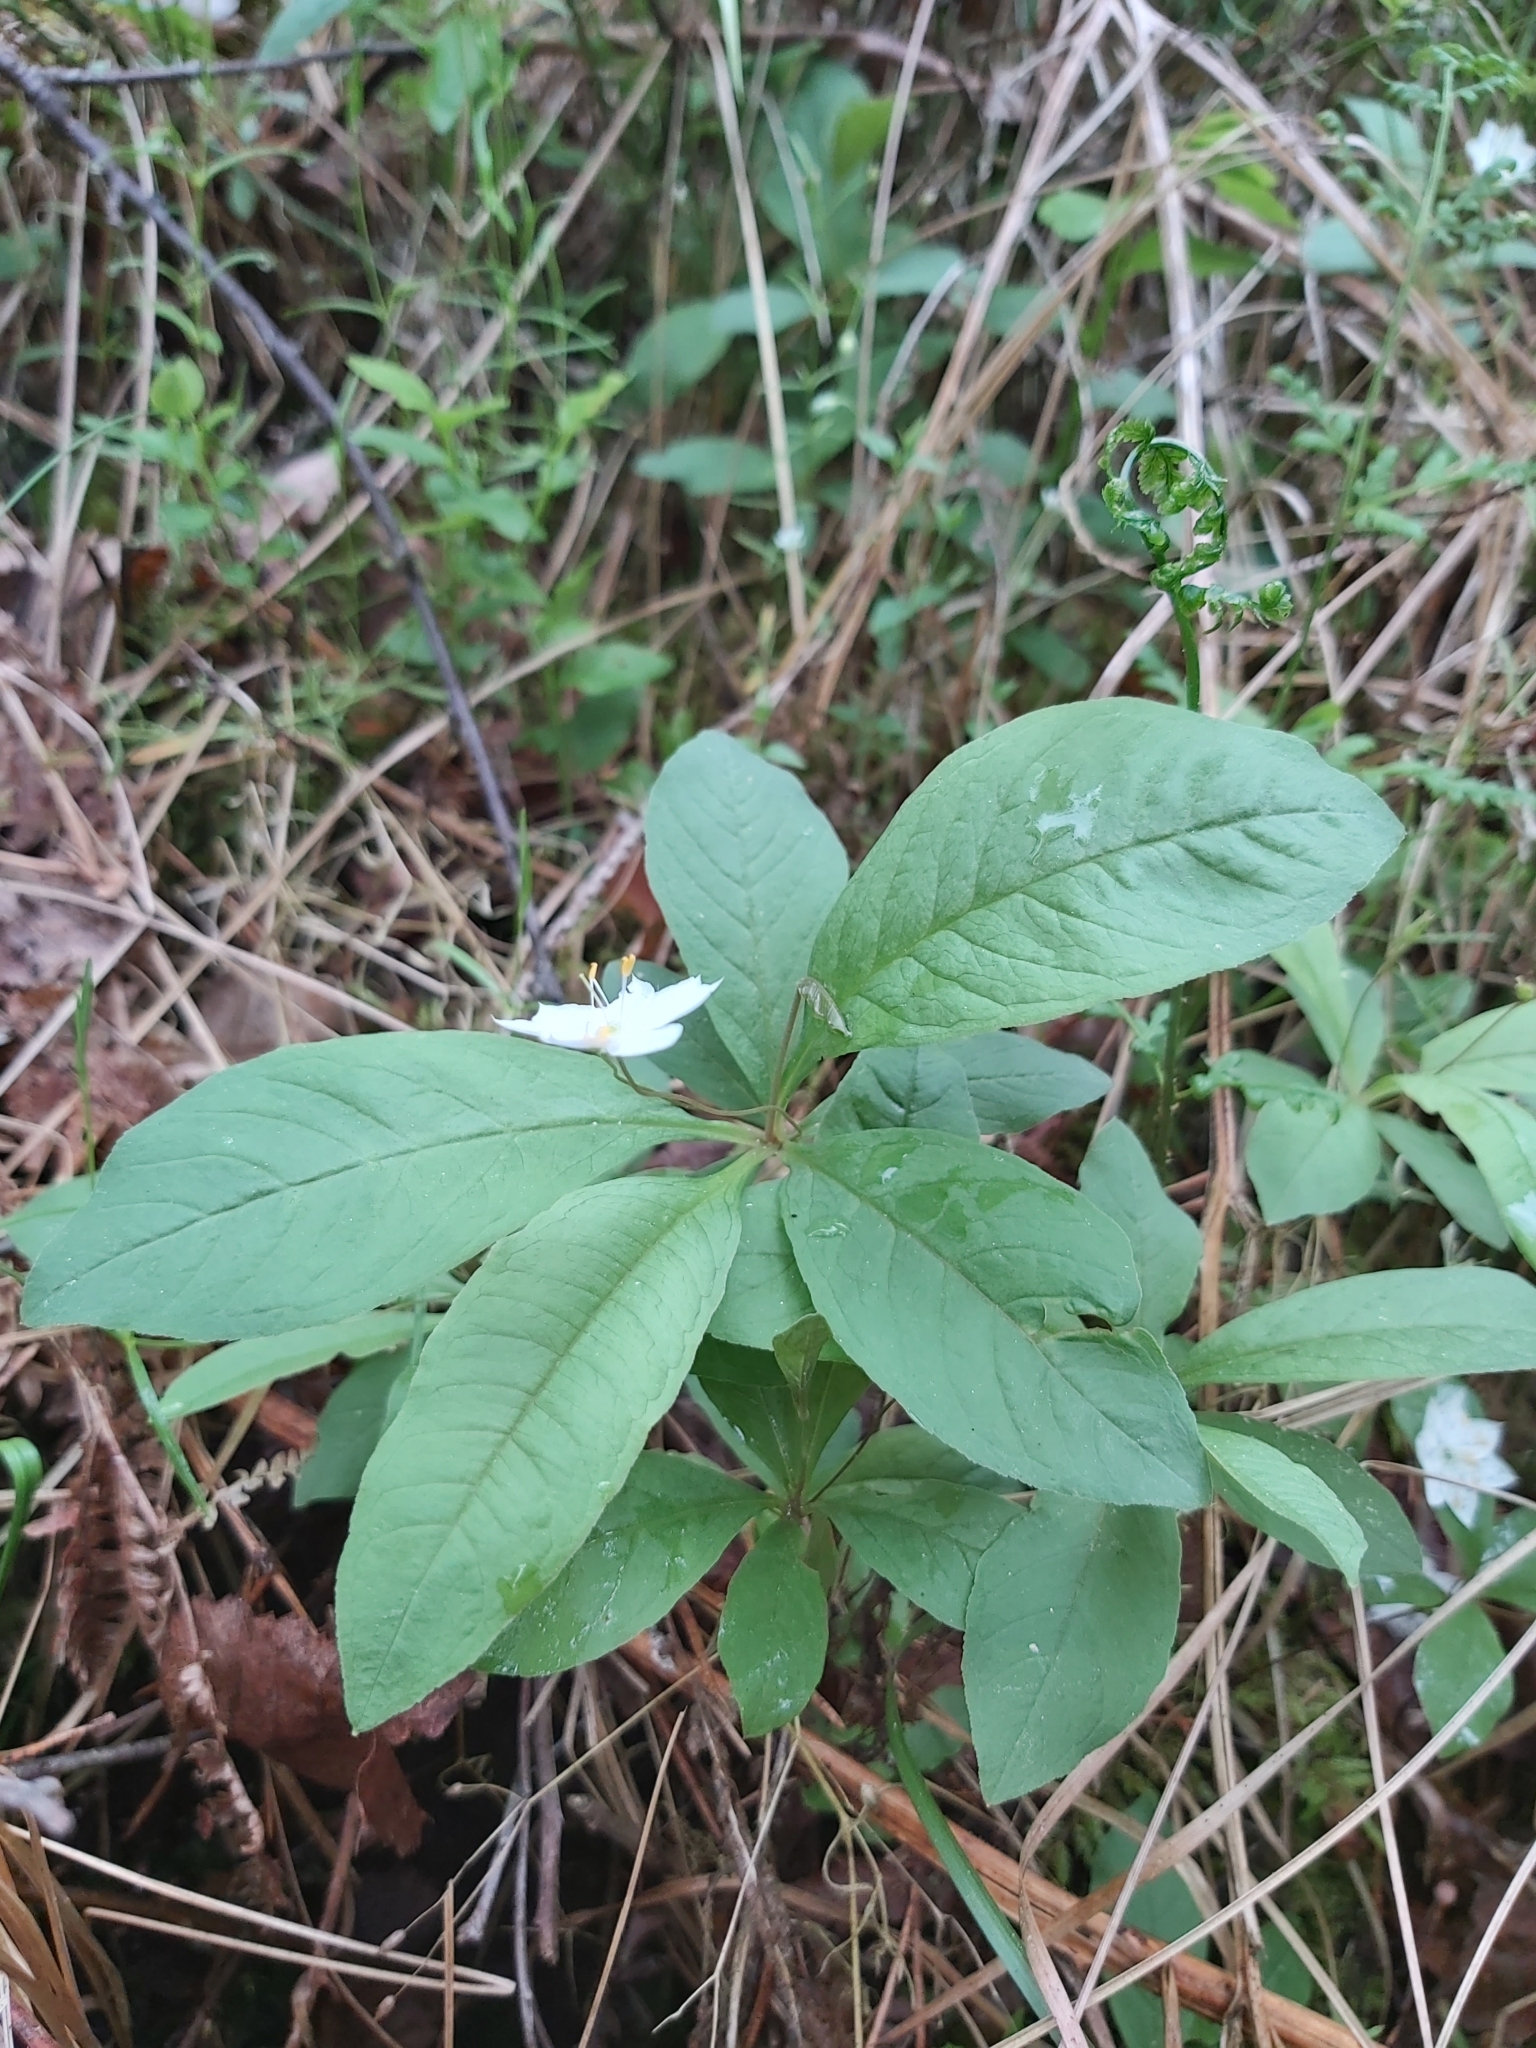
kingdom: Plantae
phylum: Tracheophyta
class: Magnoliopsida
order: Ericales
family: Primulaceae
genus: Lysimachia
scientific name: Lysimachia europaea
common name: Arctic starflower
